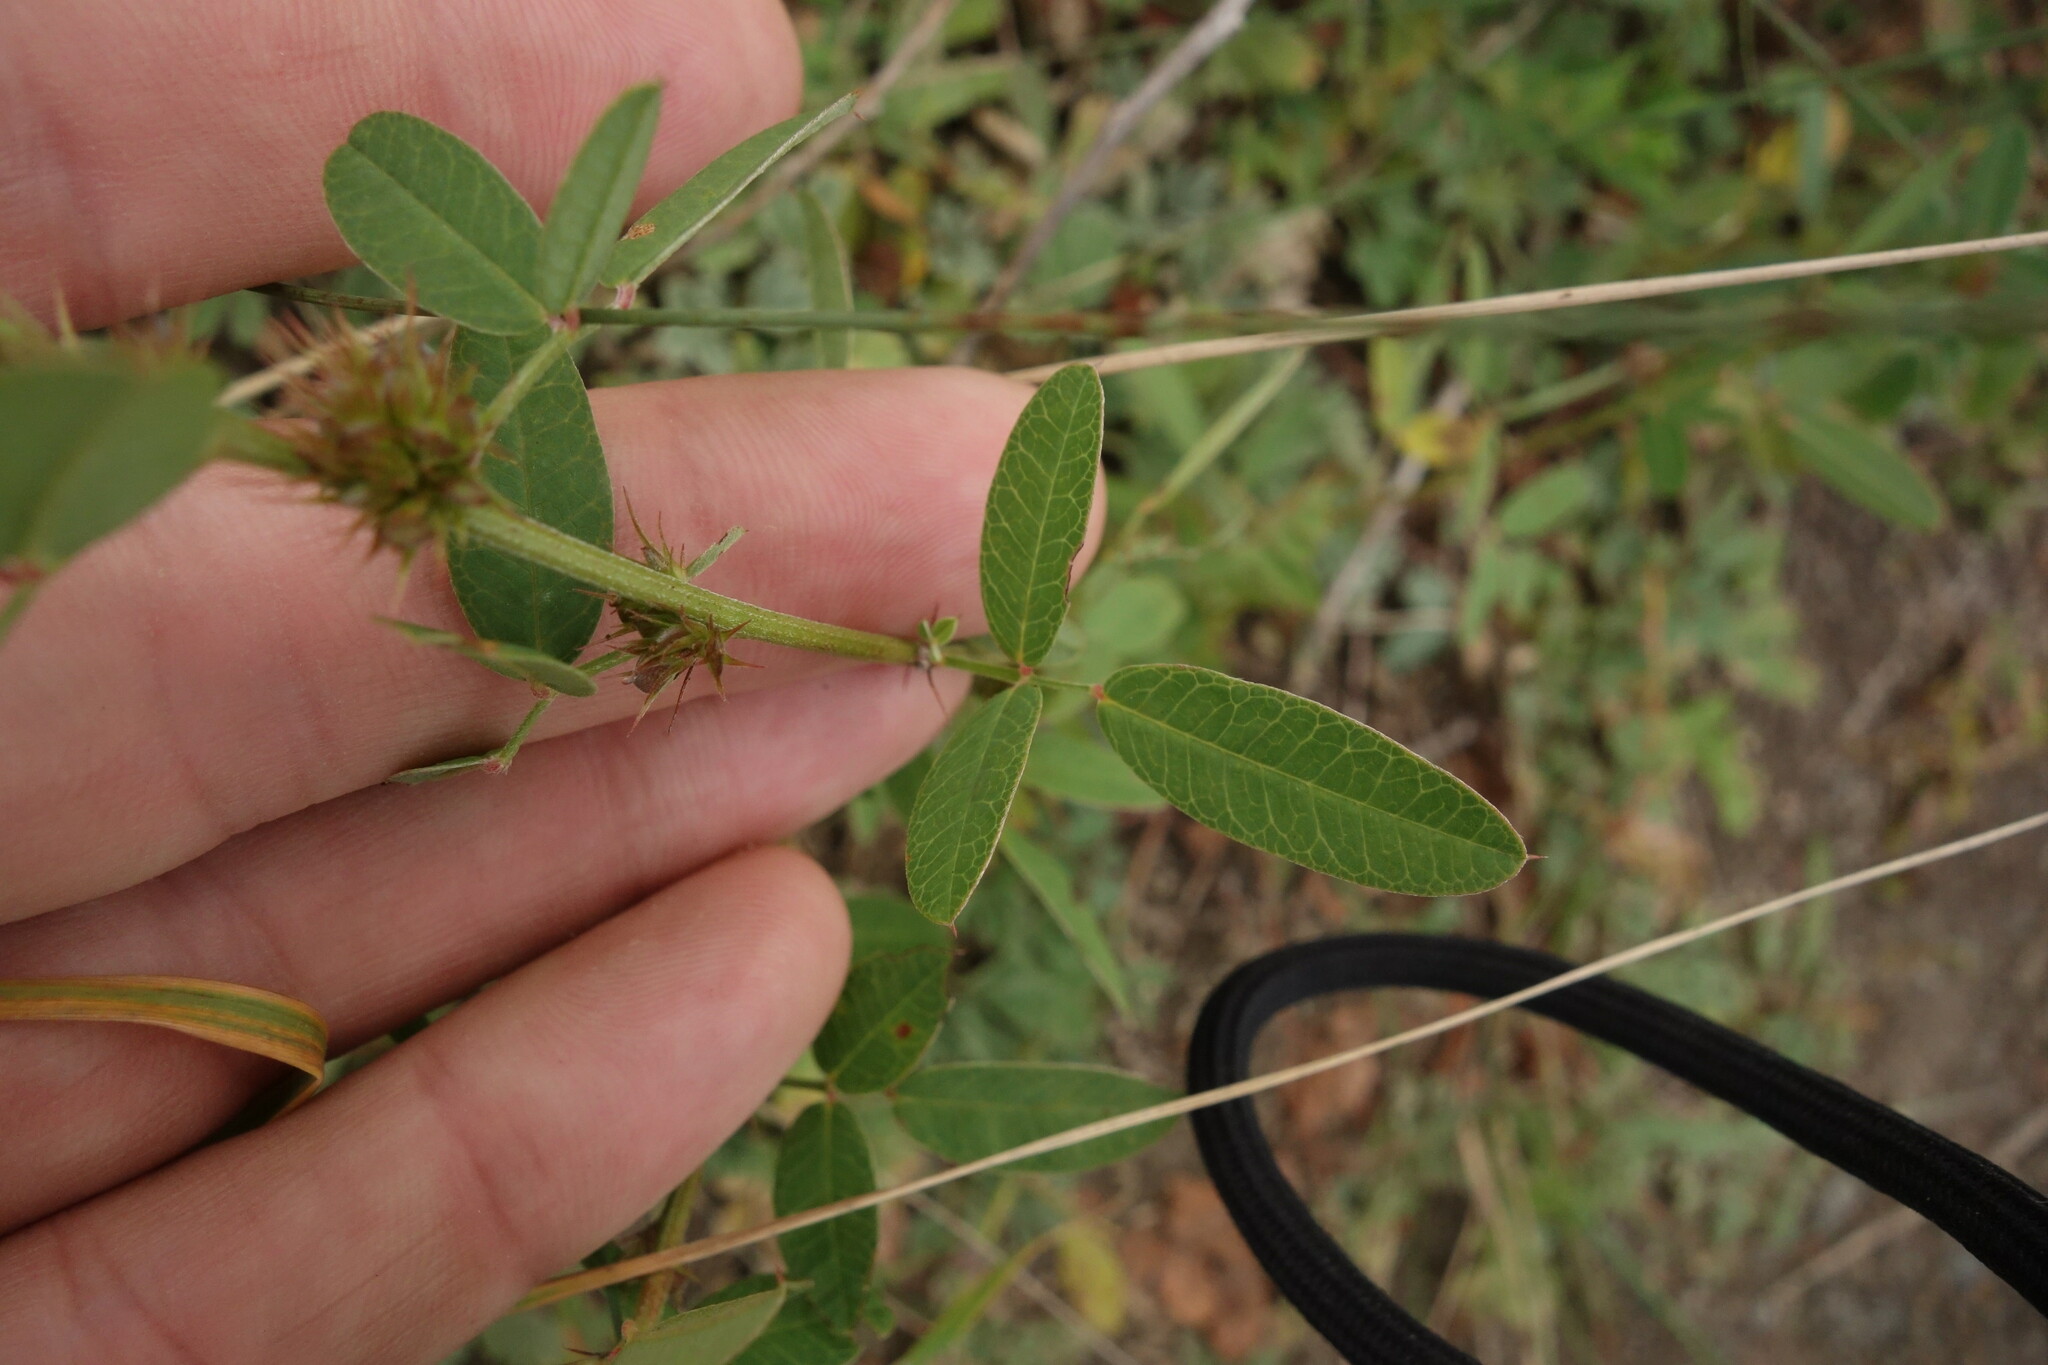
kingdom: Plantae
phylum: Tracheophyta
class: Magnoliopsida
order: Fabales
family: Fabaceae
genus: Lespedeza
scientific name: Lespedeza daurica
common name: Dahurian lespedeza
